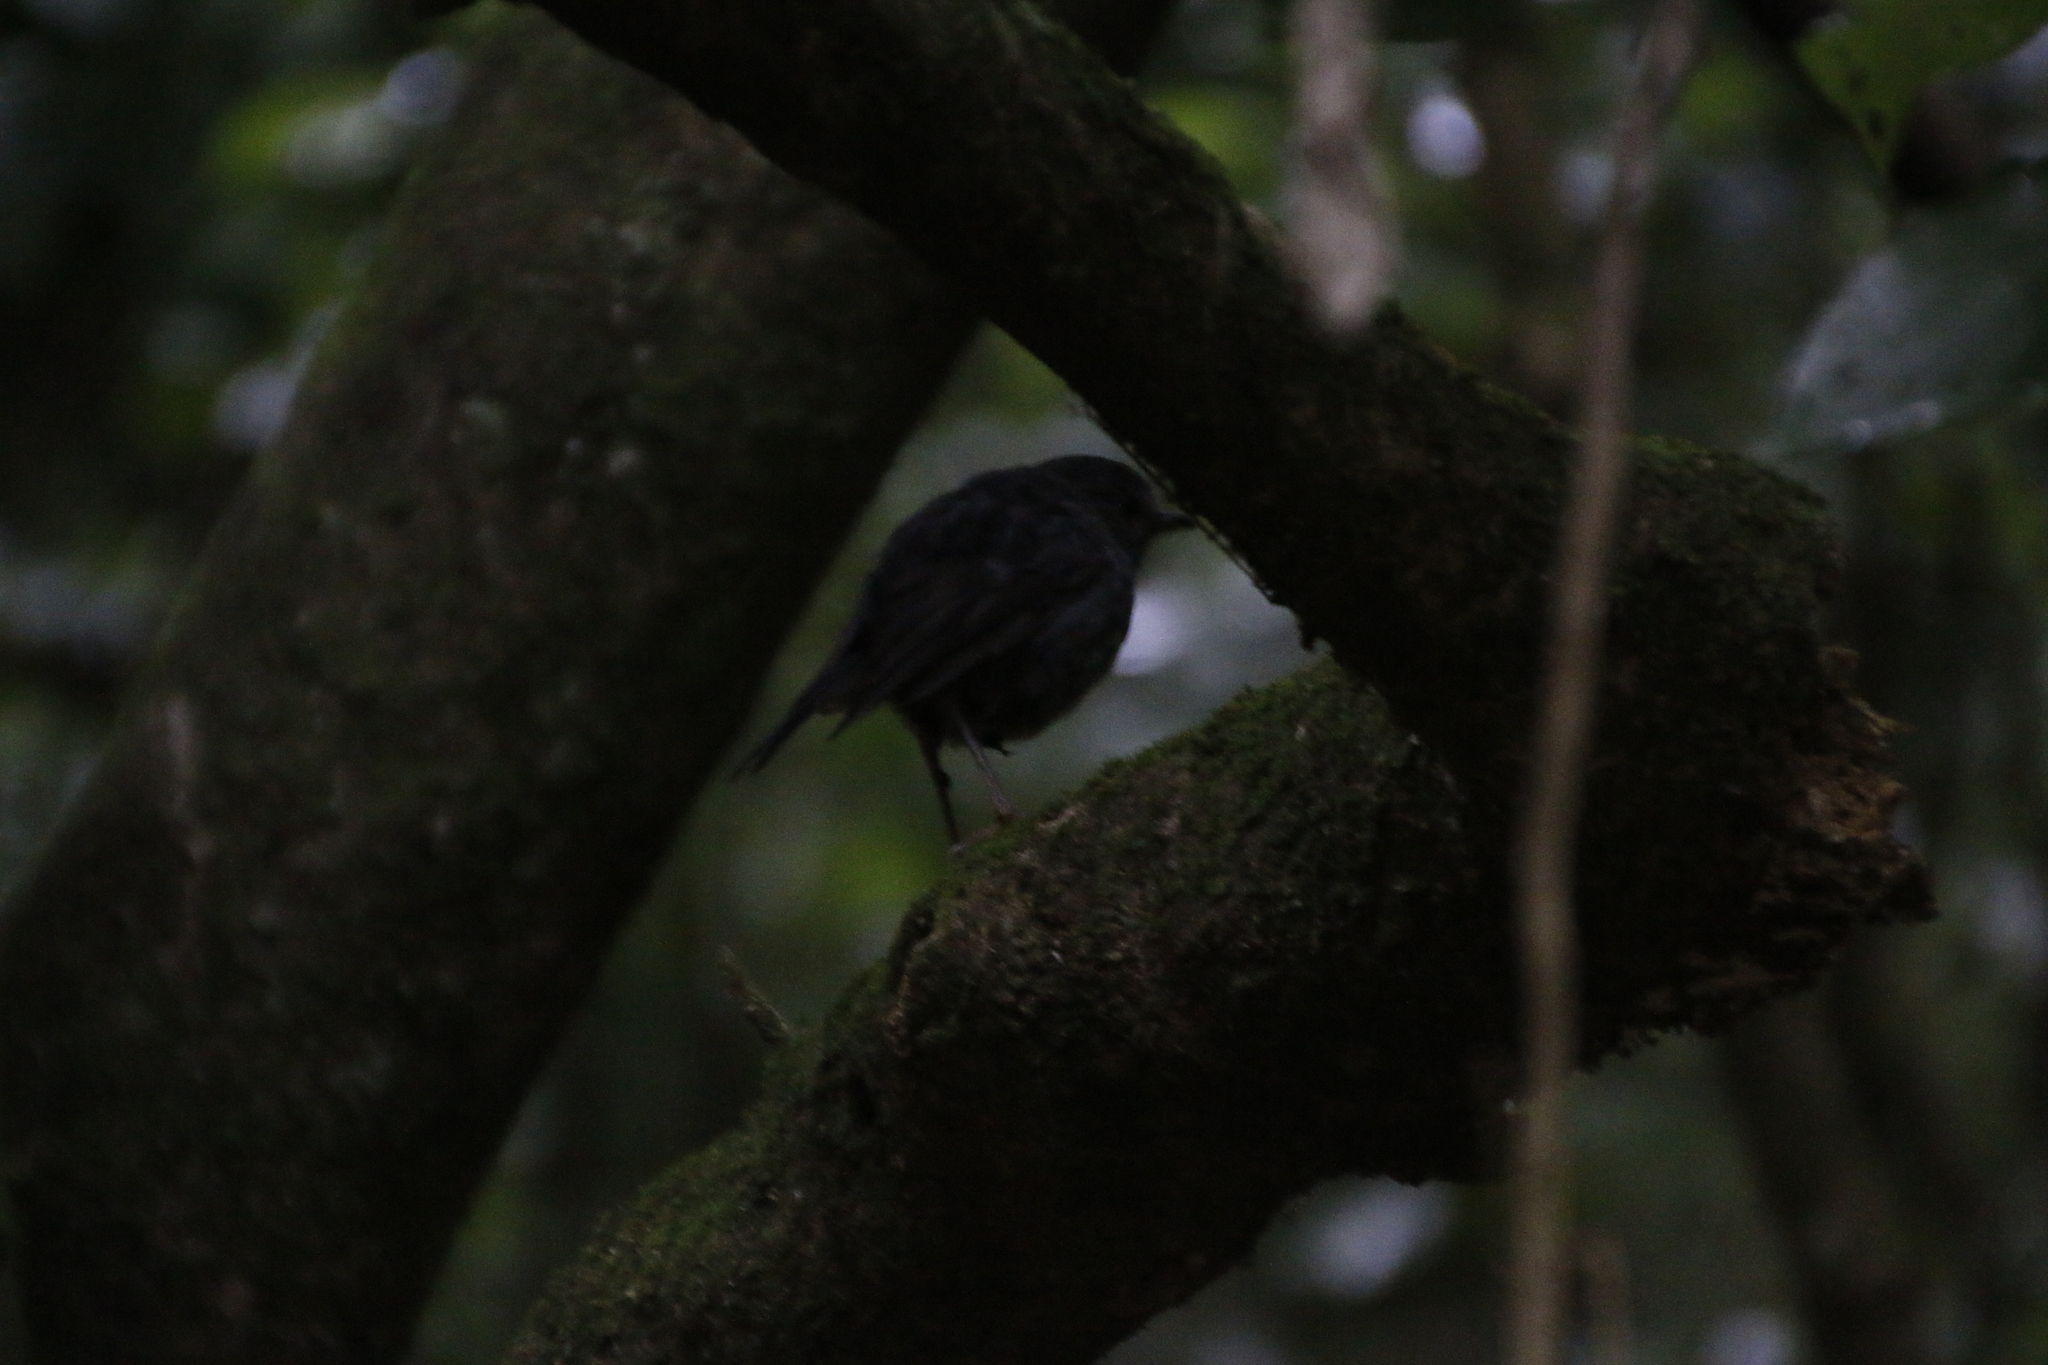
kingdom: Animalia
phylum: Chordata
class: Aves
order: Passeriformes
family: Petroicidae
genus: Petroica
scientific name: Petroica australis
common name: New zealand robin
